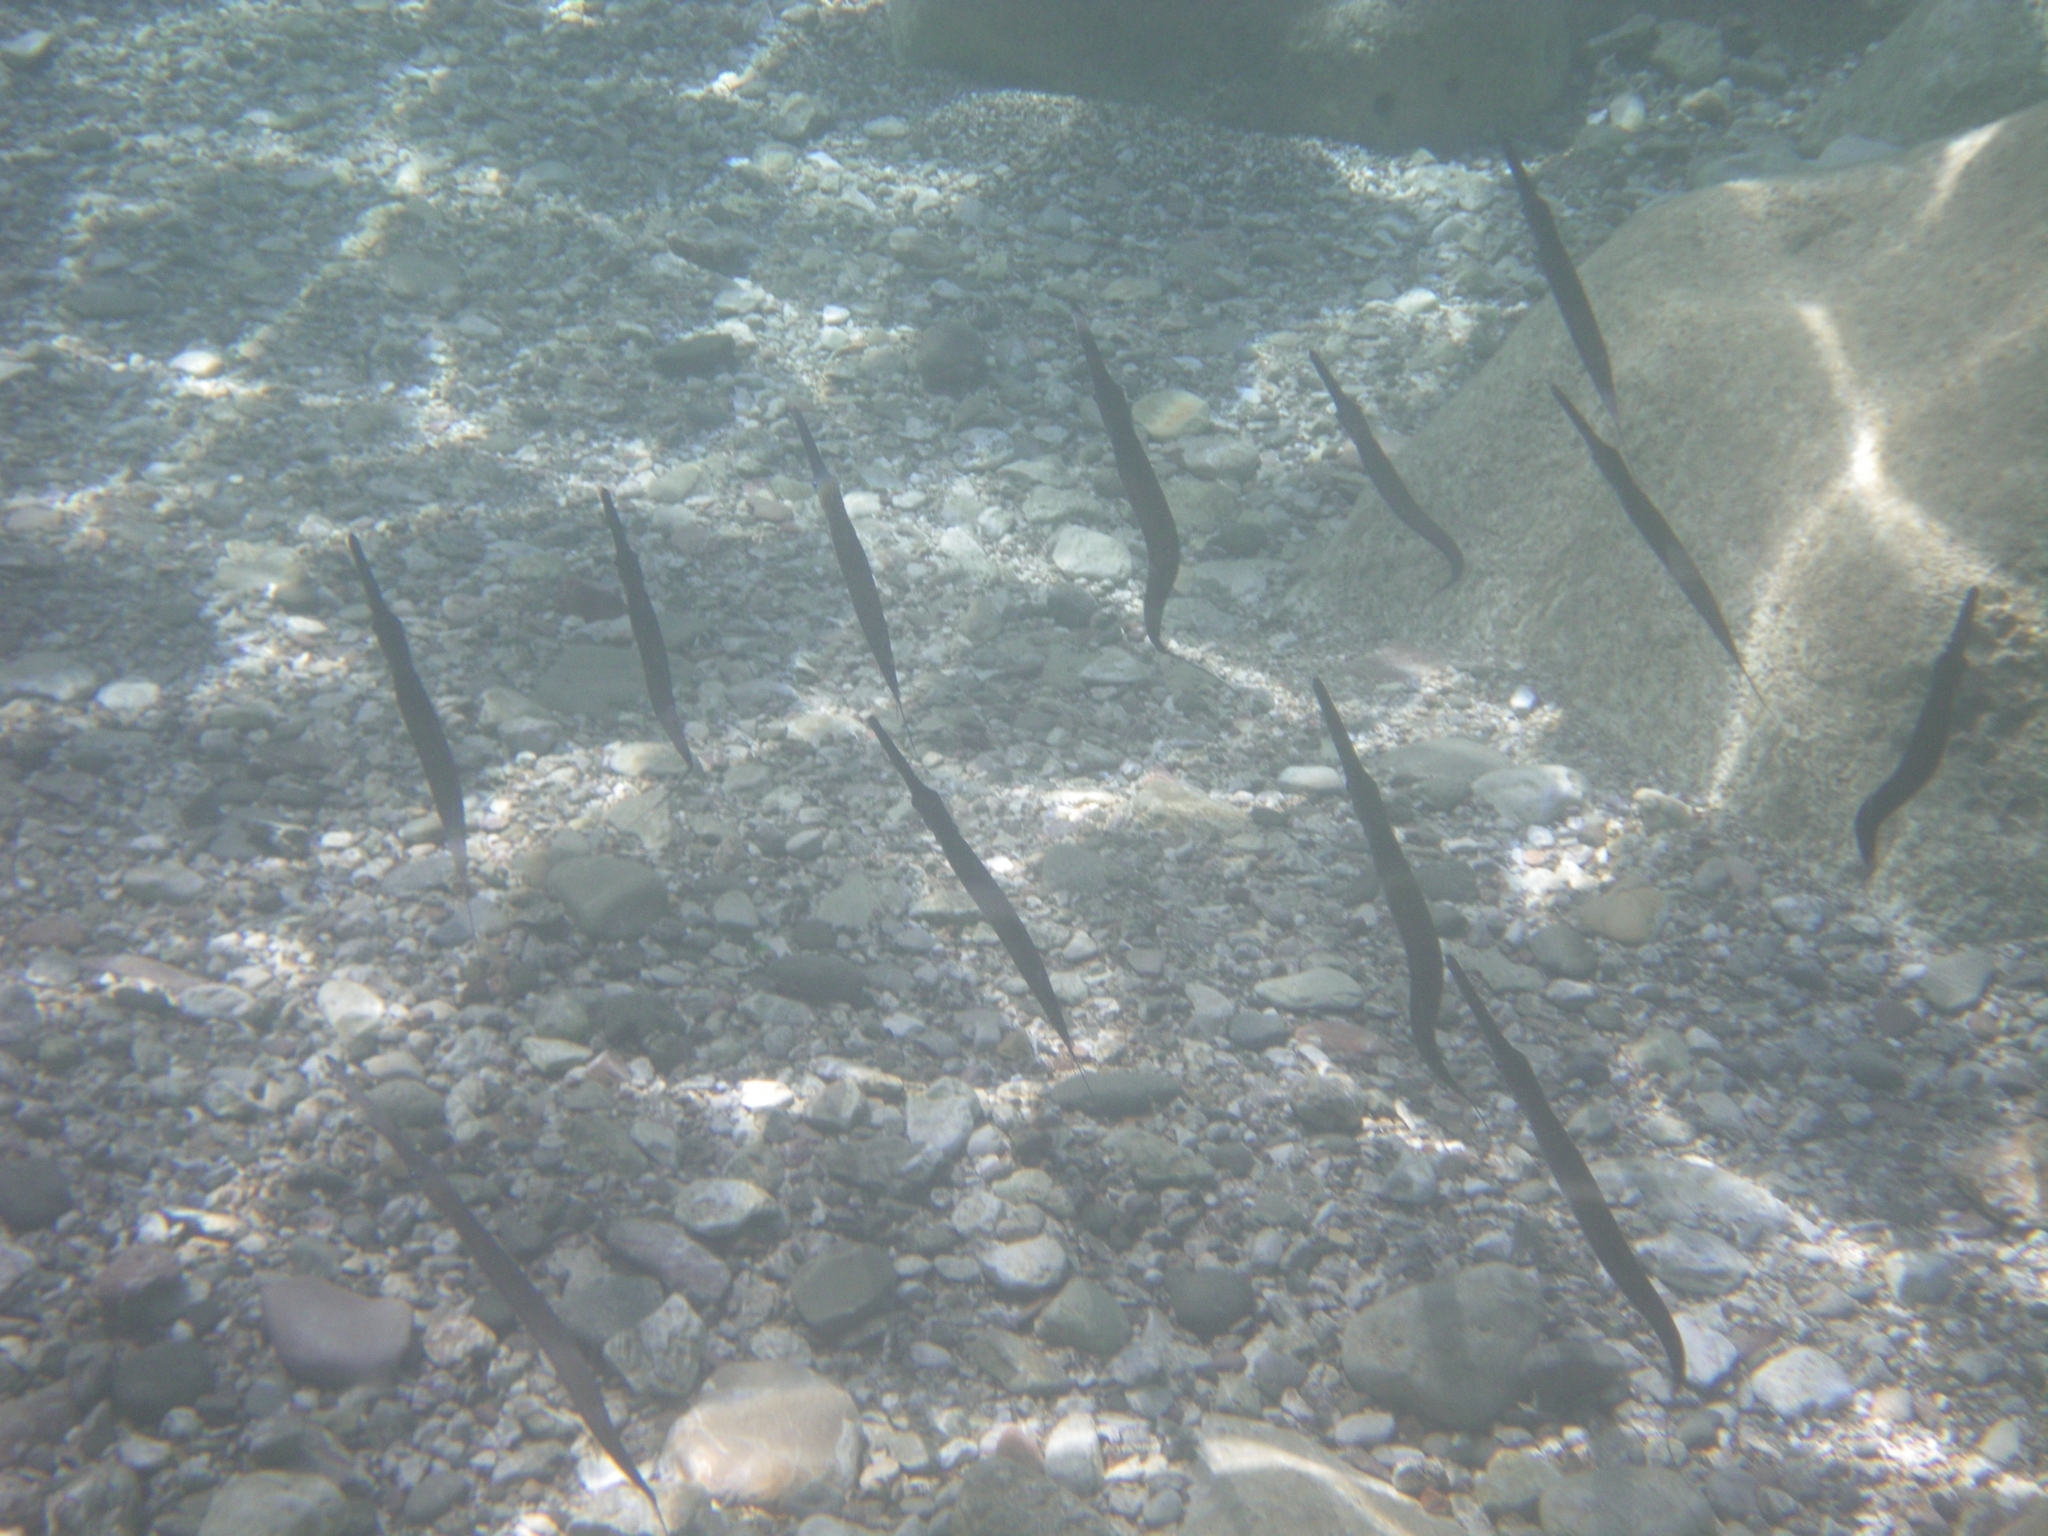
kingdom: Animalia
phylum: Chordata
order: Syngnathiformes
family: Fistulariidae
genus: Fistularia
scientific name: Fistularia commersonii
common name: Bluespotted cornetfish
